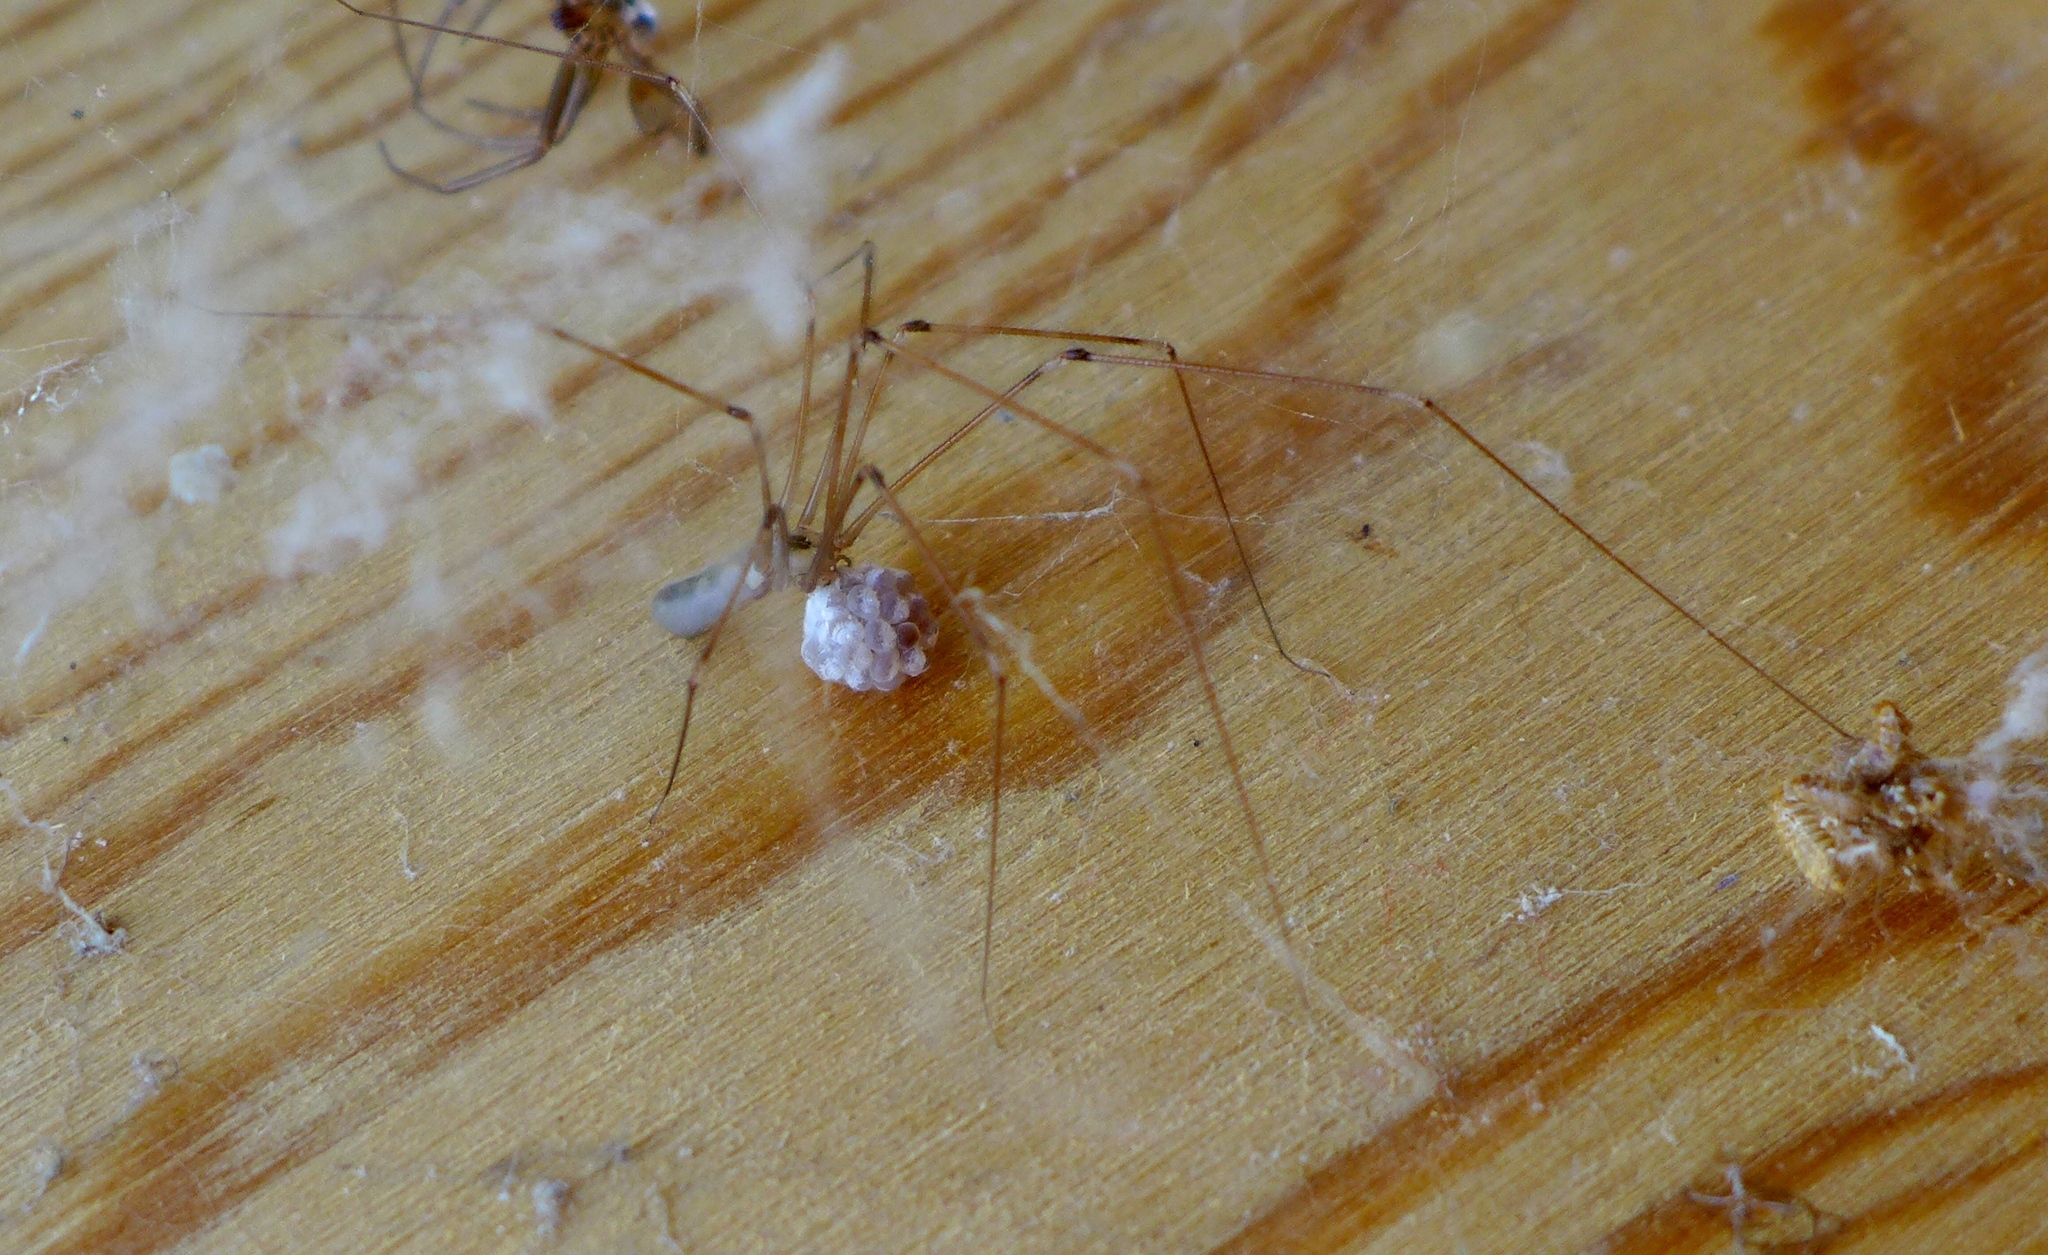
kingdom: Animalia
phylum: Arthropoda
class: Arachnida
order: Araneae
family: Pholcidae
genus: Pholcus
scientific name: Pholcus phalangioides
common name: Longbodied cellar spider
